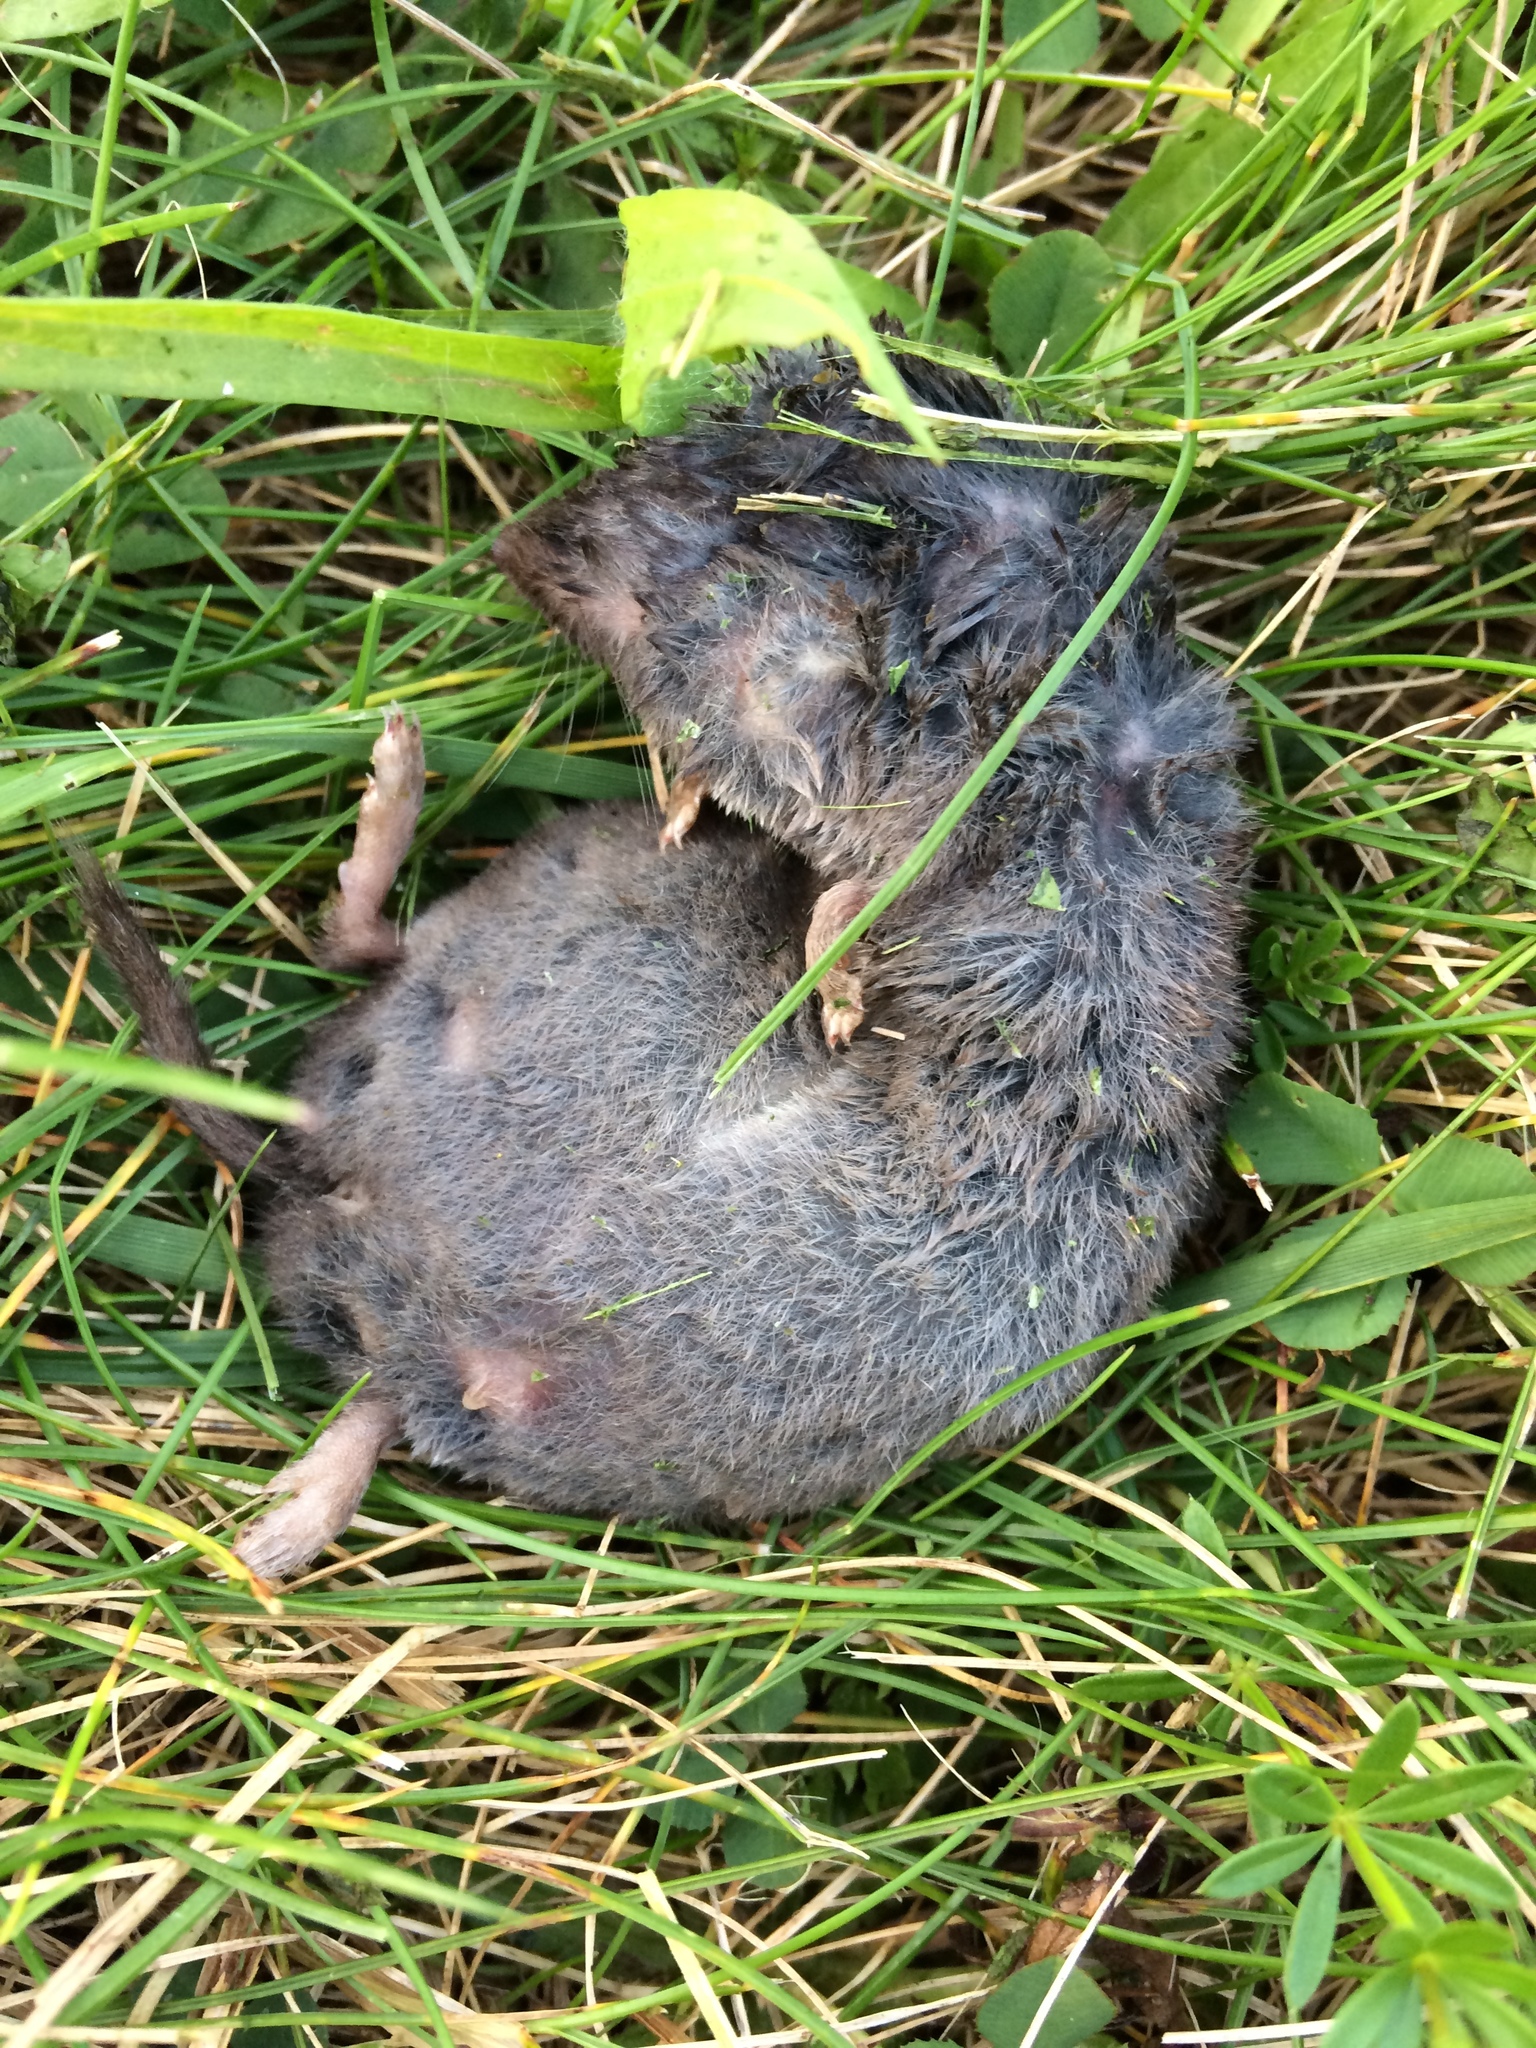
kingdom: Animalia
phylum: Chordata
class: Mammalia
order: Soricomorpha
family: Soricidae
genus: Blarina
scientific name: Blarina brevicauda
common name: Northern short-tailed shrew
